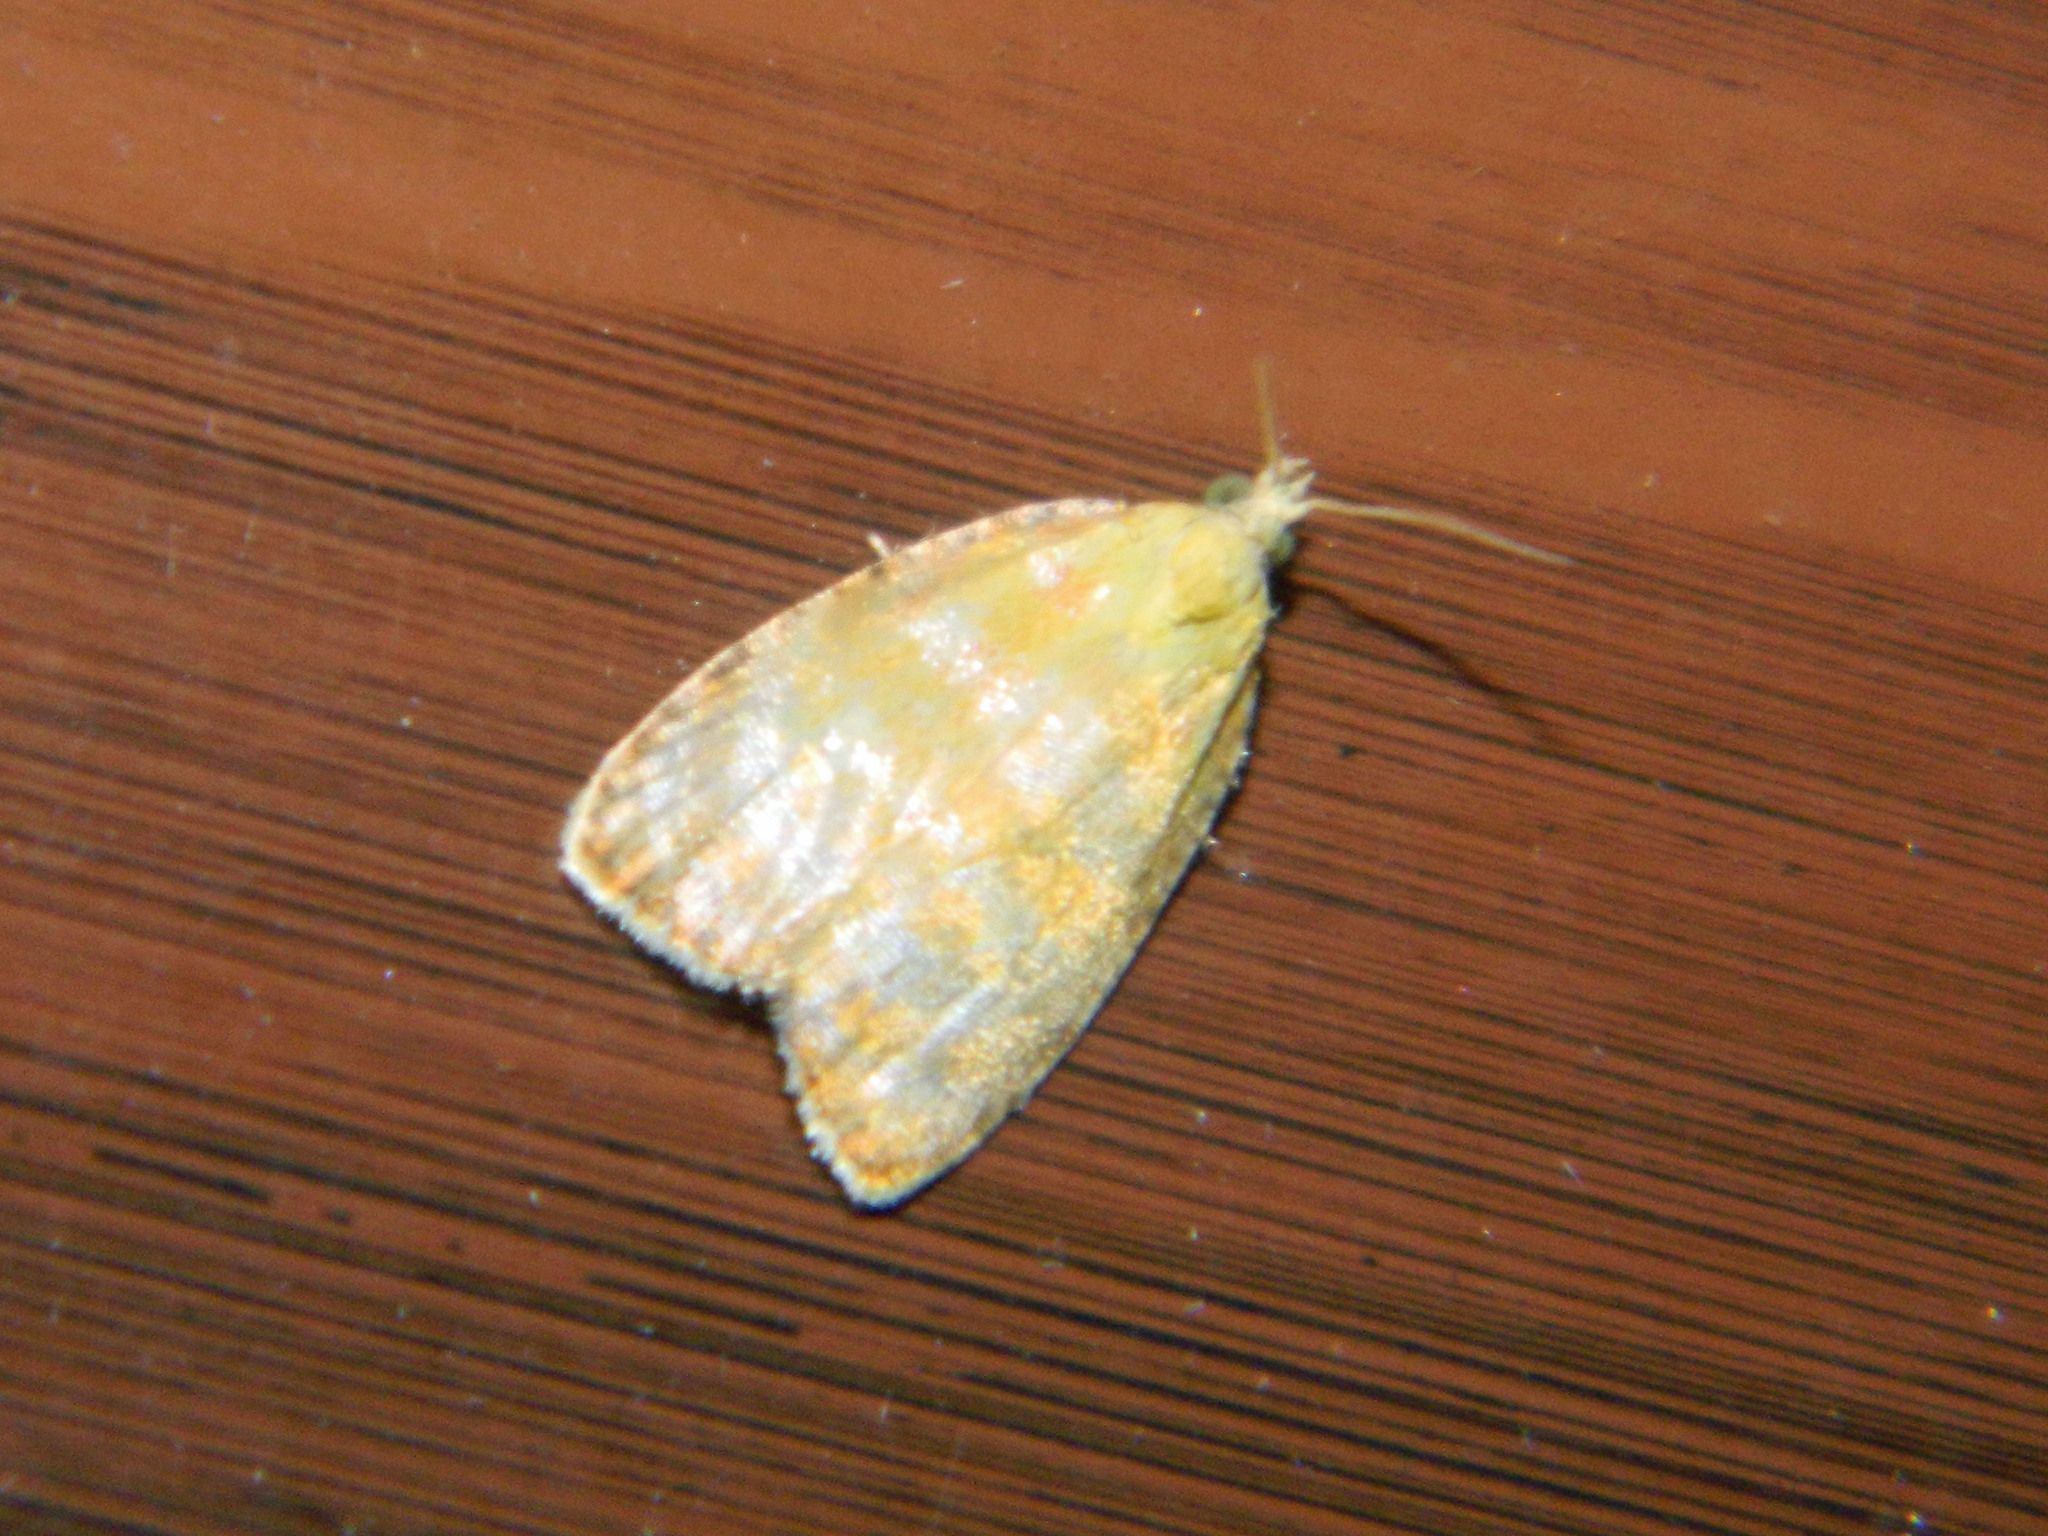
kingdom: Animalia
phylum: Arthropoda
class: Insecta
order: Lepidoptera
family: Tortricidae
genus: Acleris
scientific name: Acleris curvalana
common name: Blueberry leaftier moth
